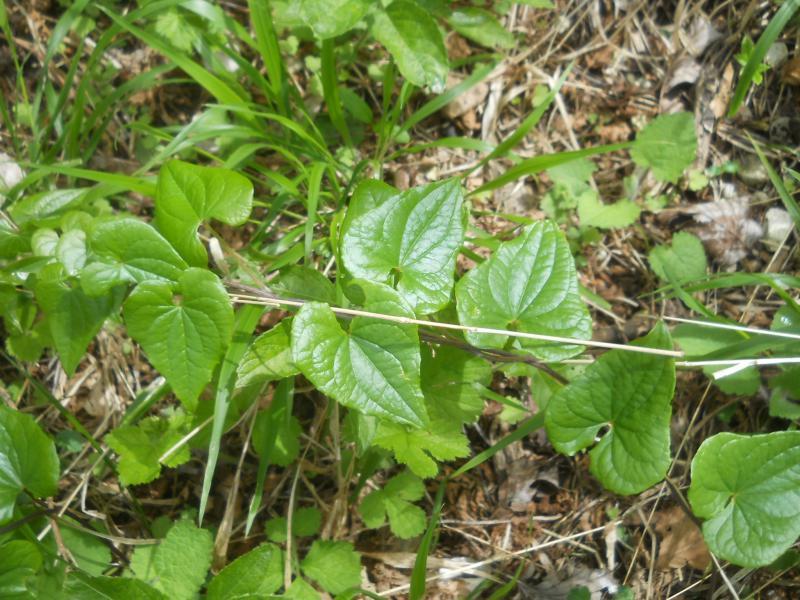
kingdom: Plantae
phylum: Tracheophyta
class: Liliopsida
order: Dioscoreales
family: Dioscoreaceae
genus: Dioscorea
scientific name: Dioscorea communis
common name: Black-bindweed
